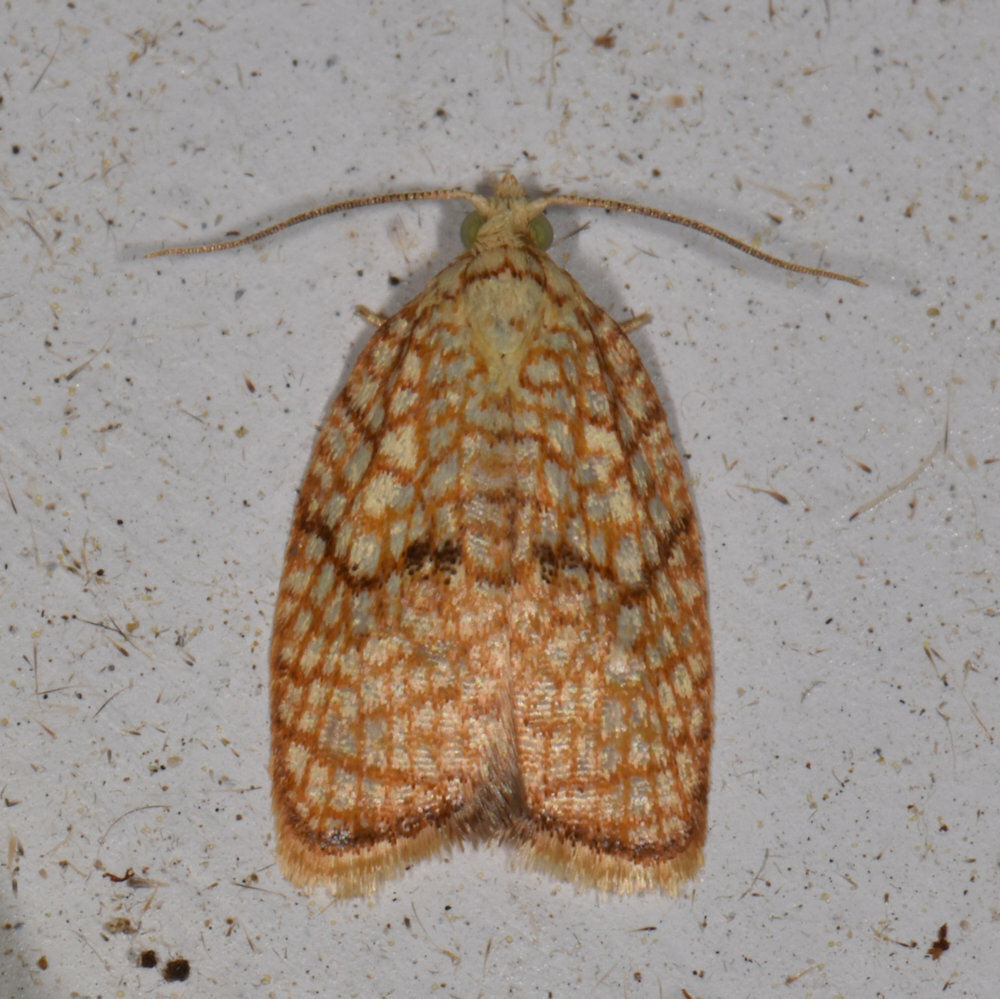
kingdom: Animalia
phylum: Arthropoda
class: Insecta
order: Lepidoptera
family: Tortricidae
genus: Acleris
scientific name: Acleris forsskaleana
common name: Maple button
